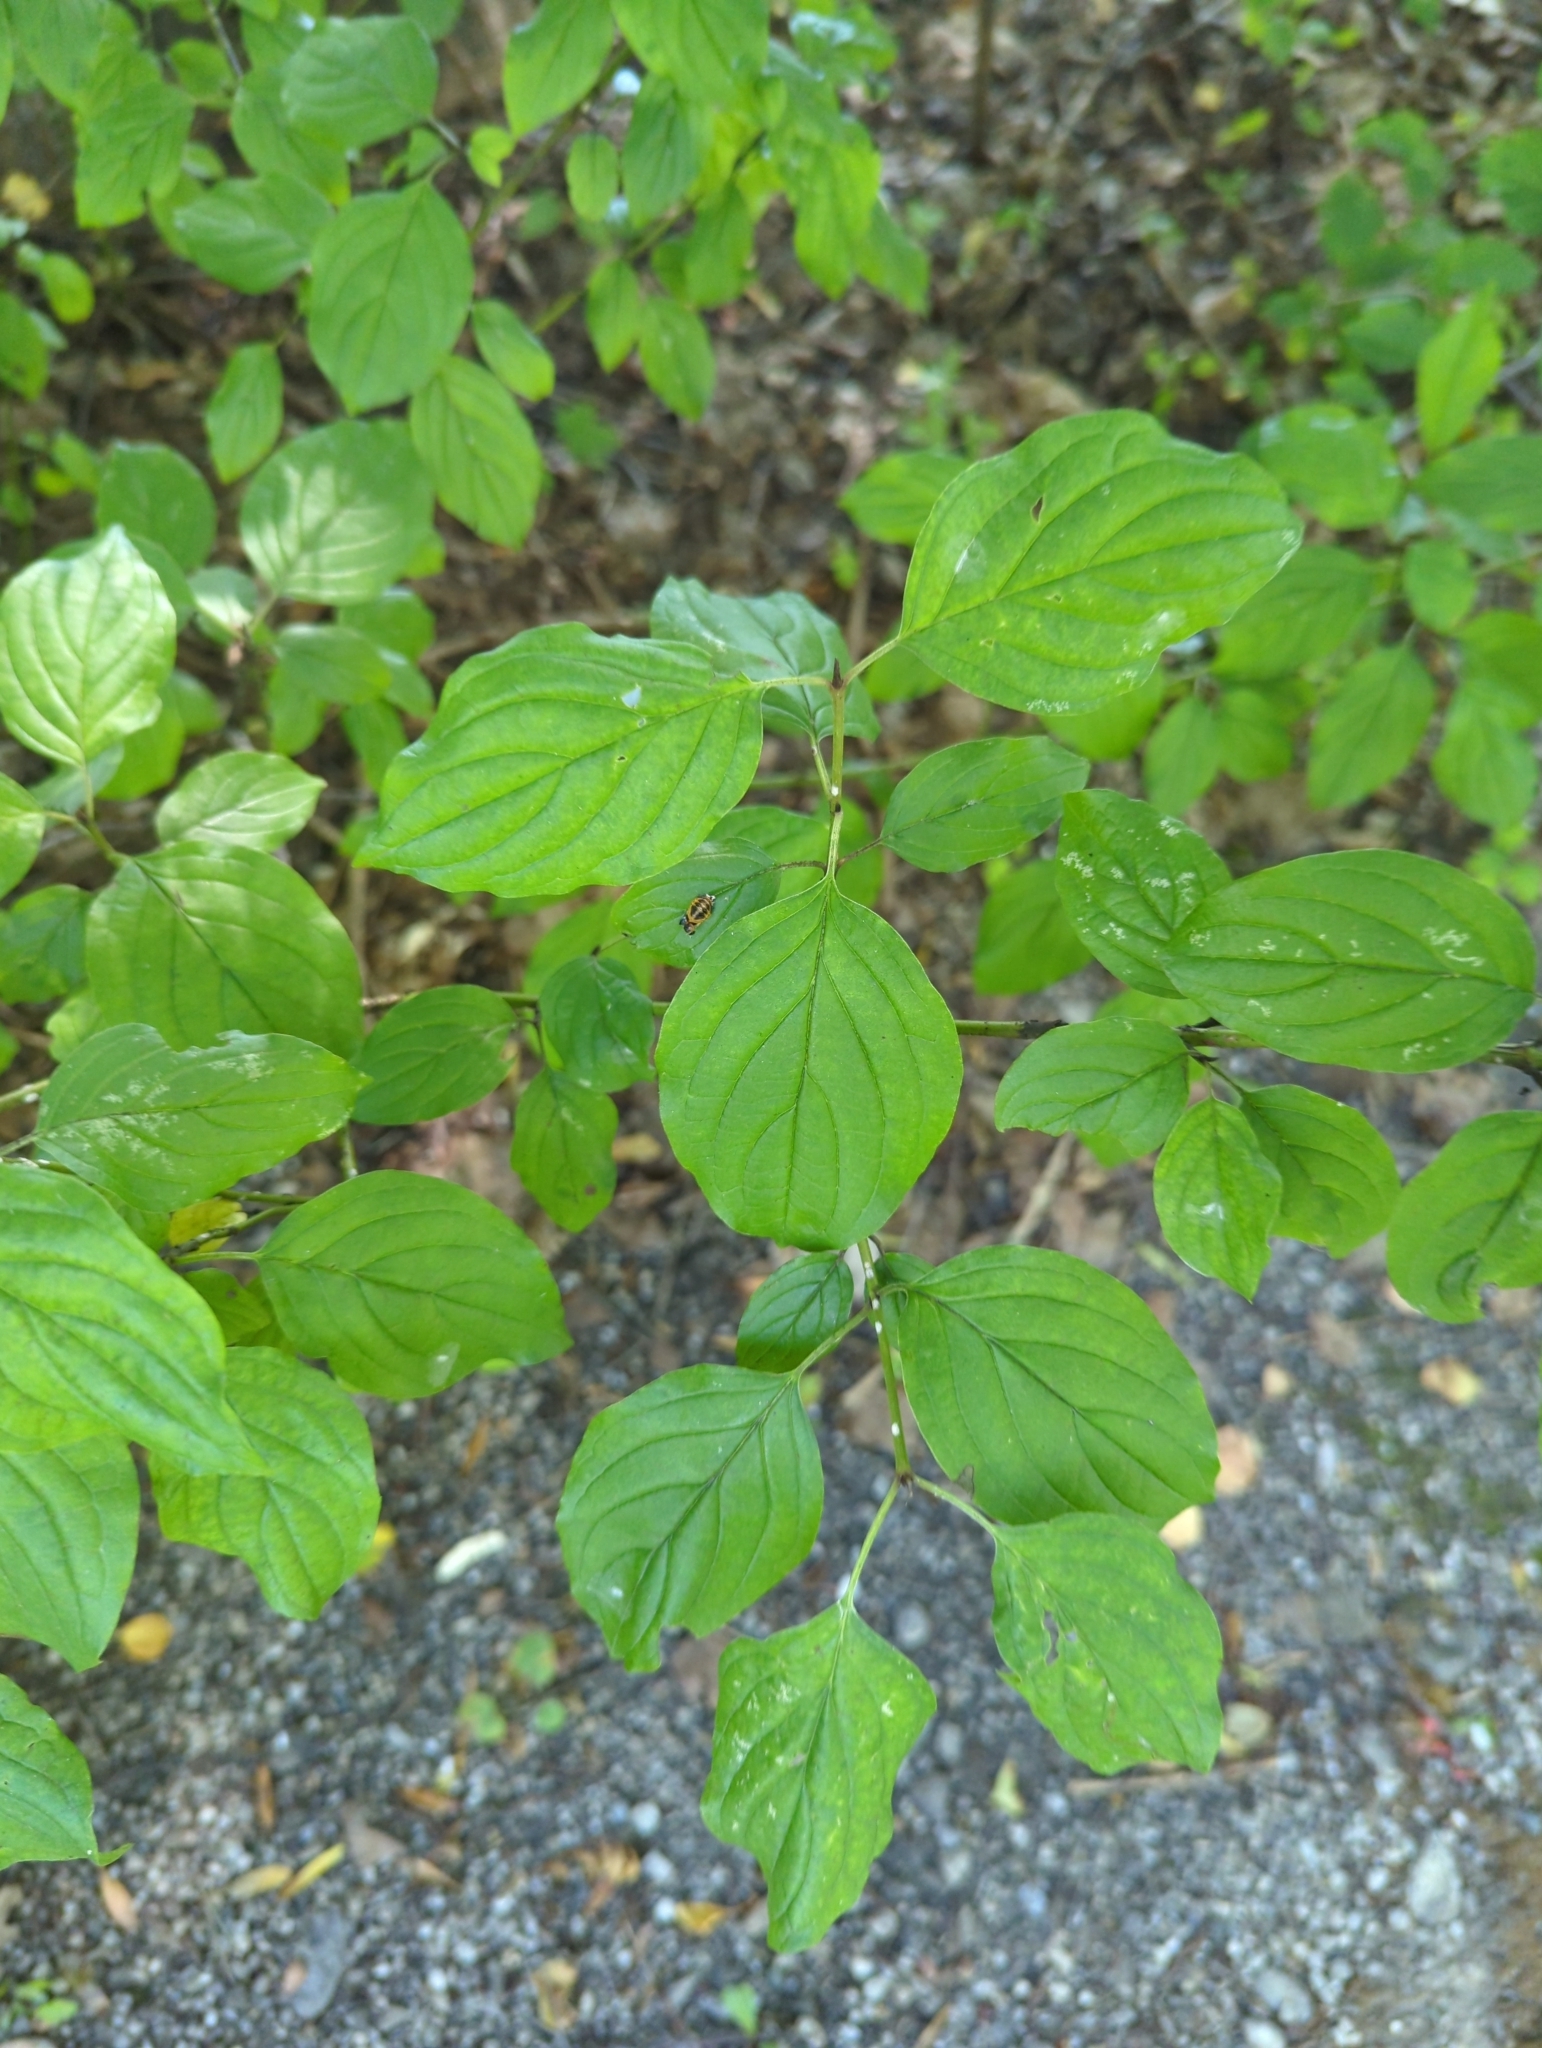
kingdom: Plantae
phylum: Tracheophyta
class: Magnoliopsida
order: Cornales
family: Cornaceae
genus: Cornus
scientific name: Cornus sanguinea
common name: Dogwood
